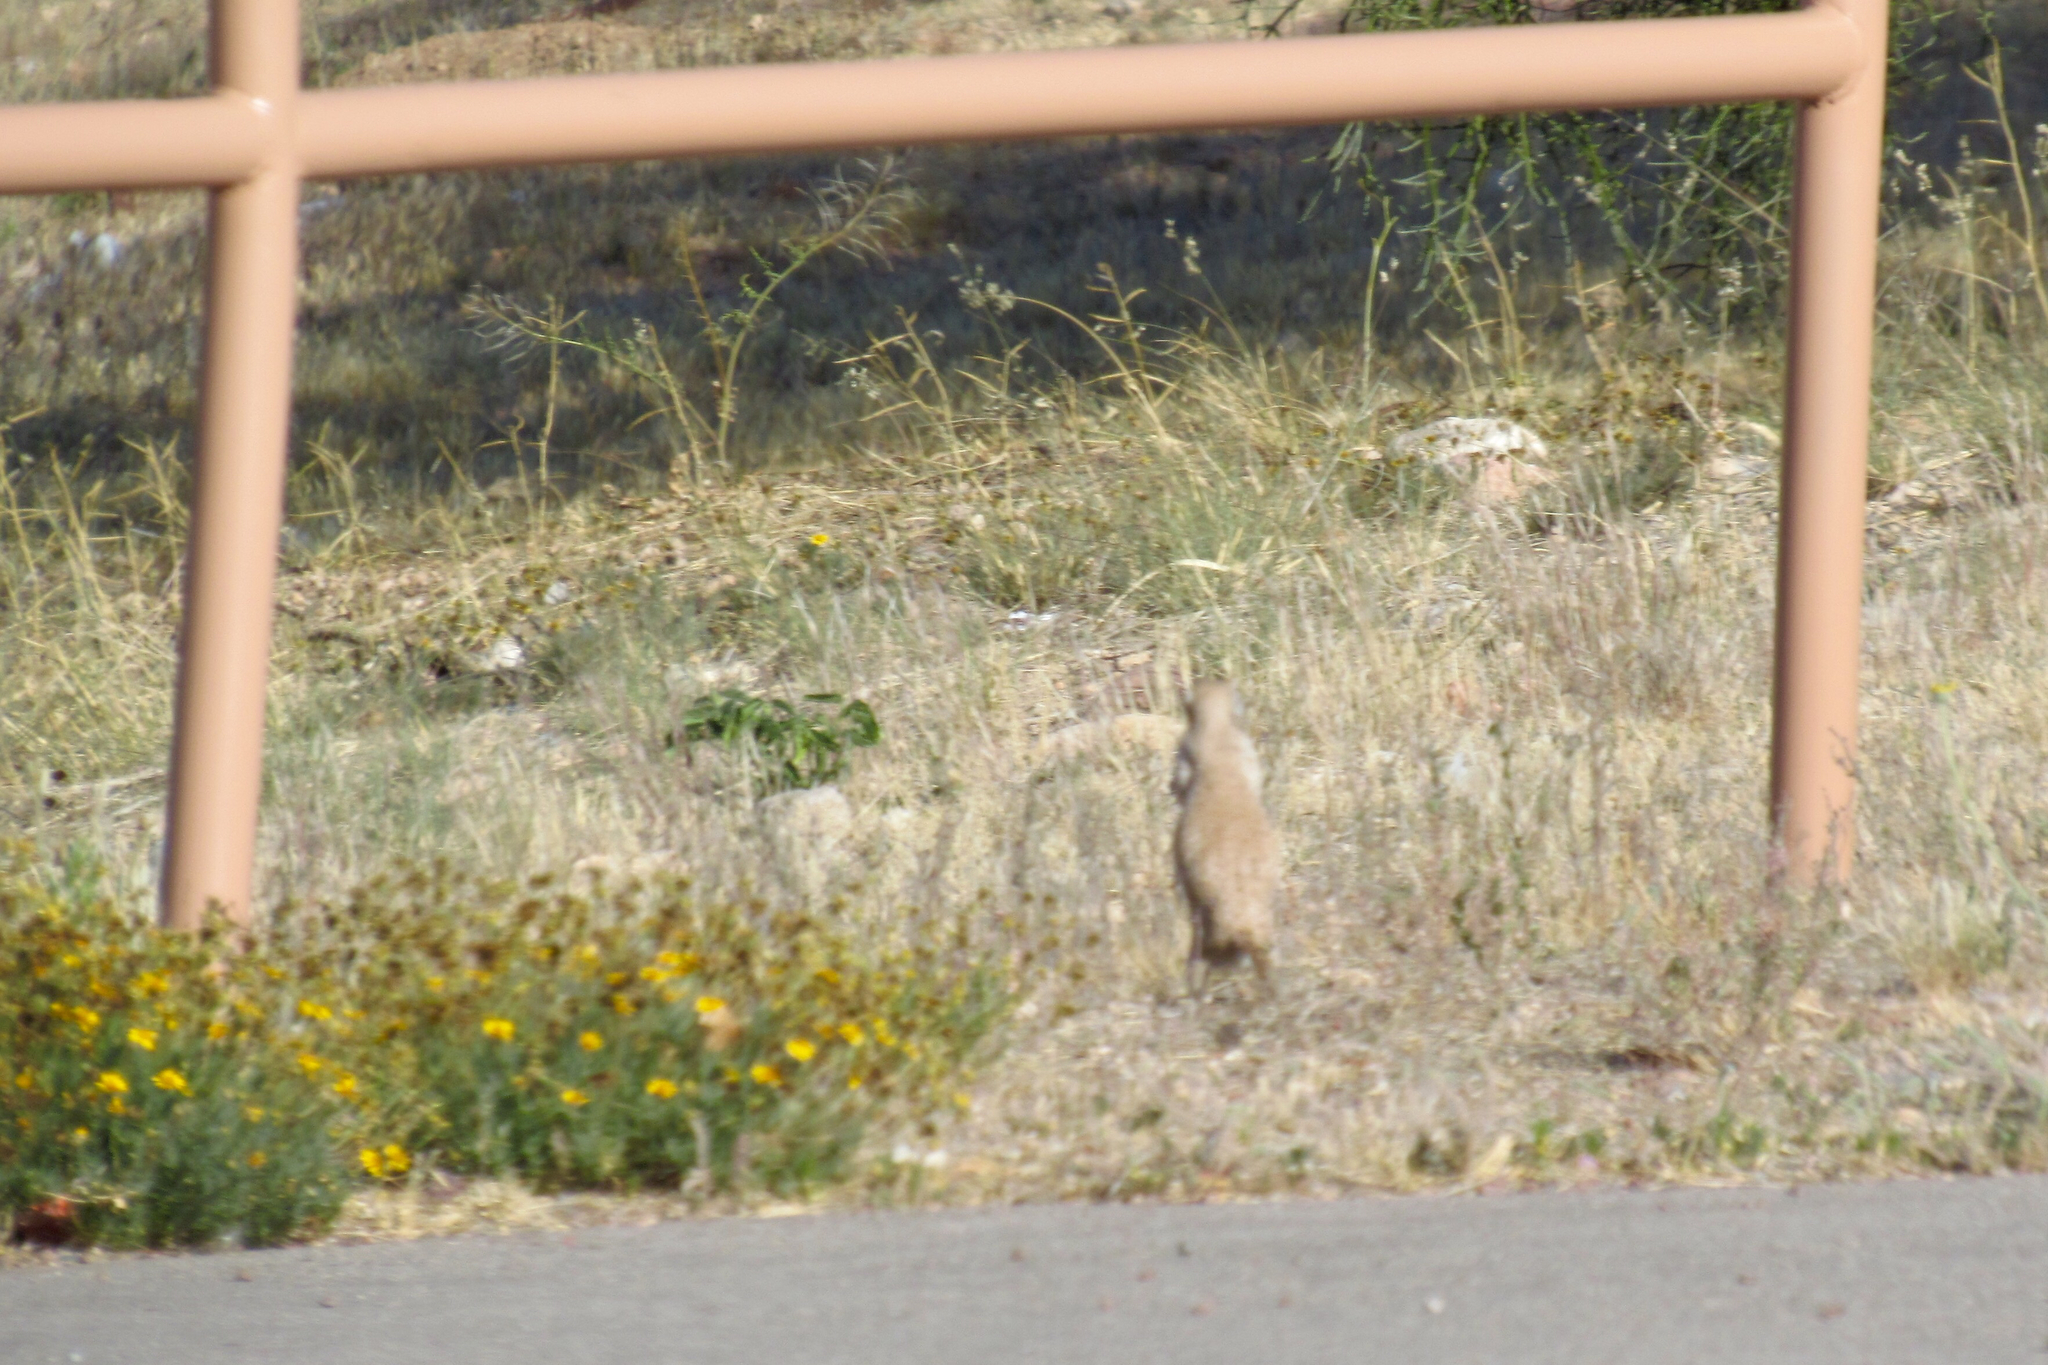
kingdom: Animalia
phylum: Chordata
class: Mammalia
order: Rodentia
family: Sciuridae
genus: Xerospermophilus
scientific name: Xerospermophilus tereticaudus
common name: Round-tailed ground squirrel
